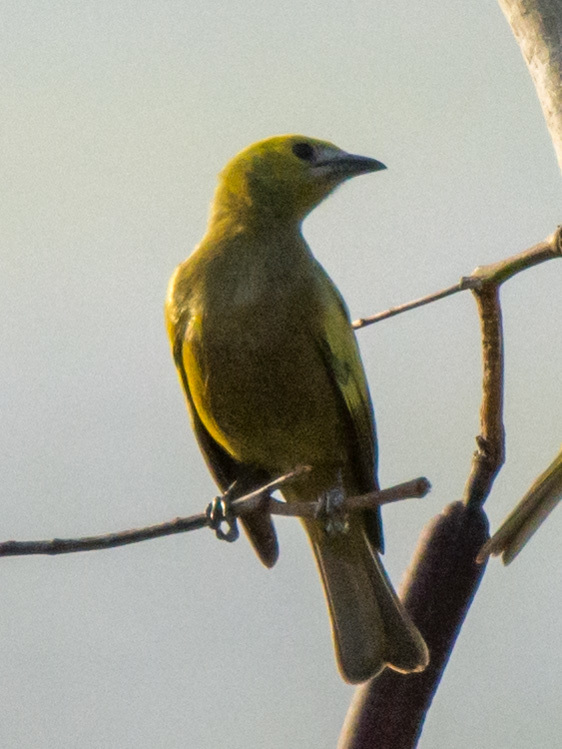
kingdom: Animalia
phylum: Chordata
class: Aves
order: Passeriformes
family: Thraupidae
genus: Thraupis
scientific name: Thraupis palmarum
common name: Palm tanager
